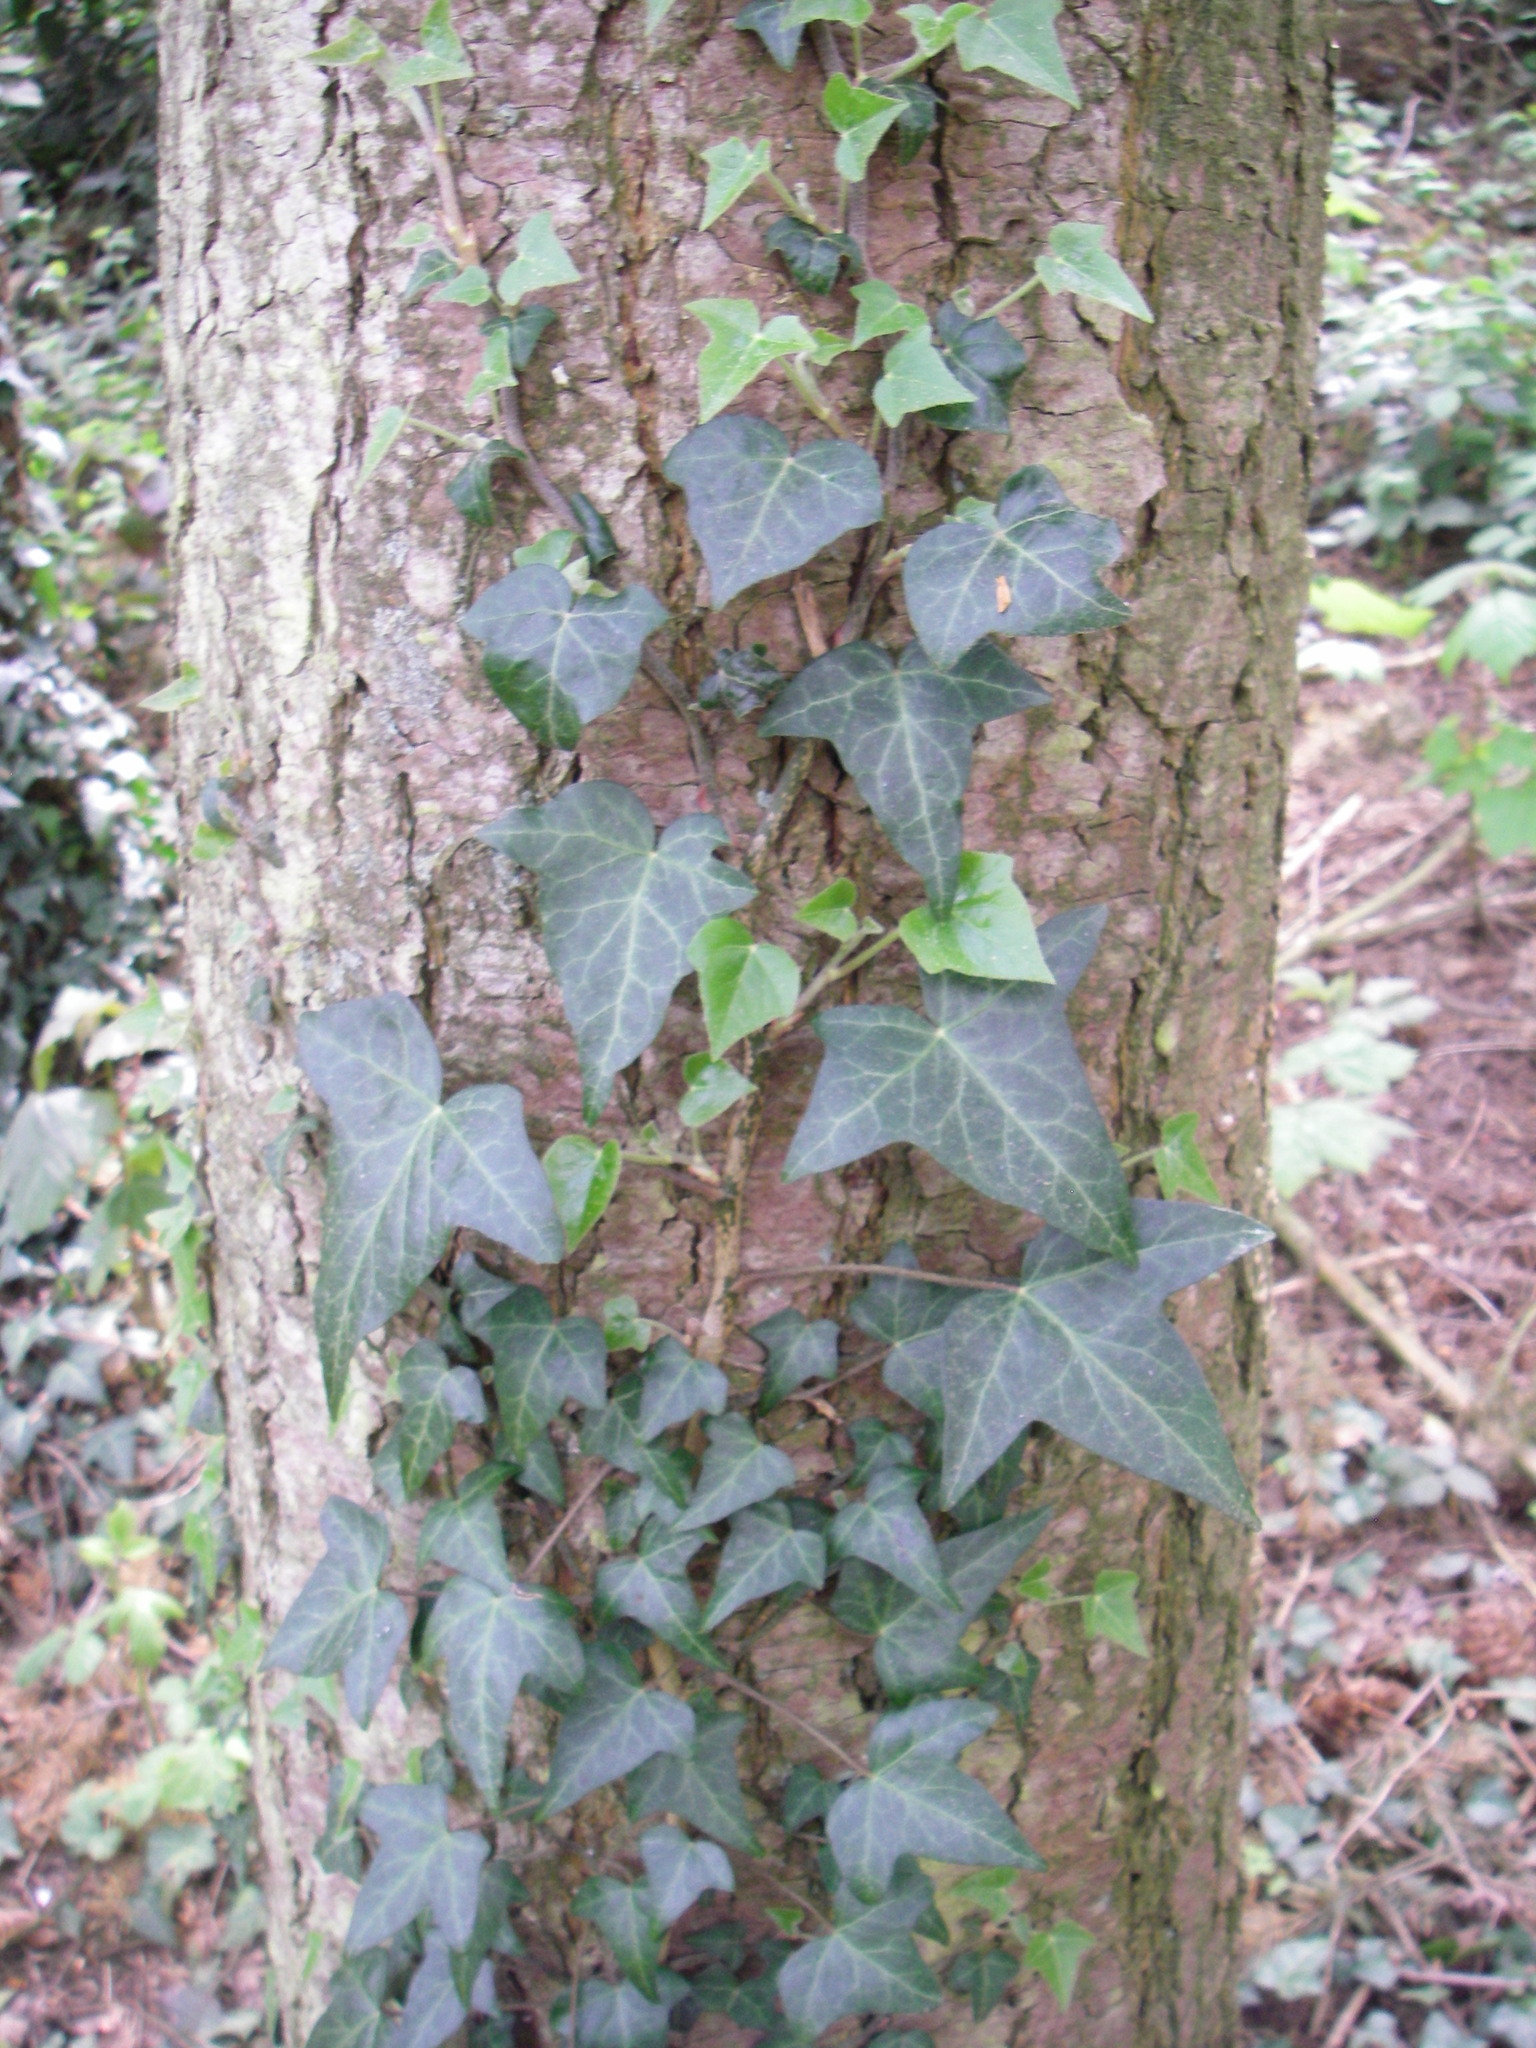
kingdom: Plantae
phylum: Tracheophyta
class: Magnoliopsida
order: Apiales
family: Araliaceae
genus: Hedera
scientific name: Hedera helix
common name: Ivy
